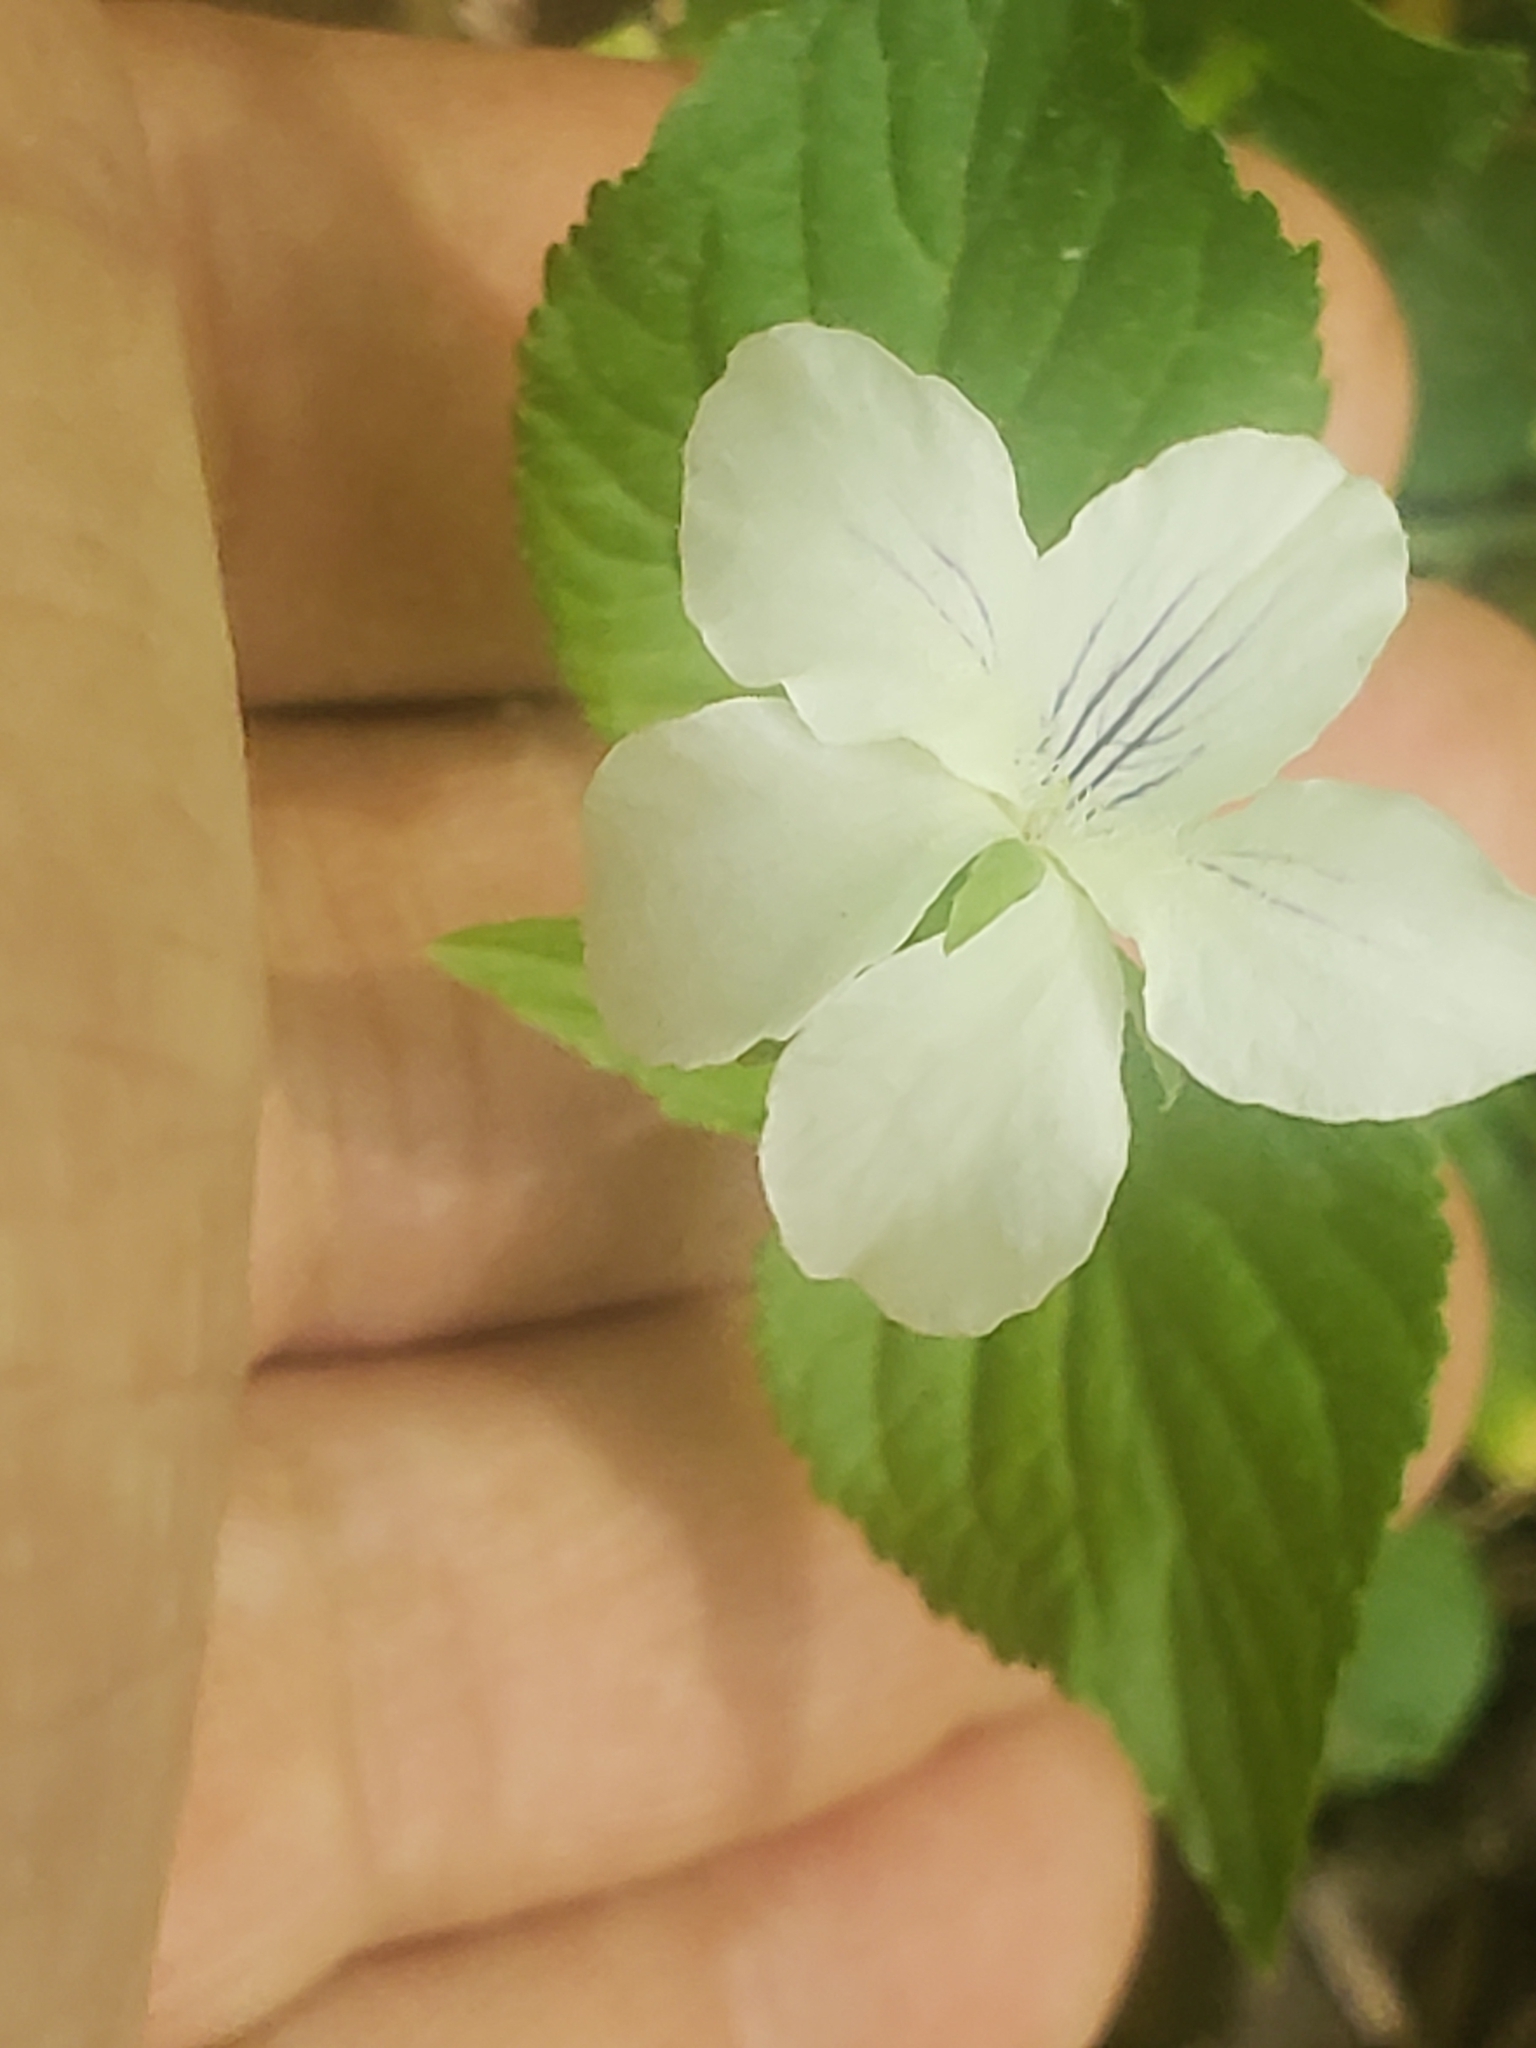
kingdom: Plantae
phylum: Tracheophyta
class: Magnoliopsida
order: Malpighiales
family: Violaceae
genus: Viola
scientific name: Viola striata
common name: Cream violet
